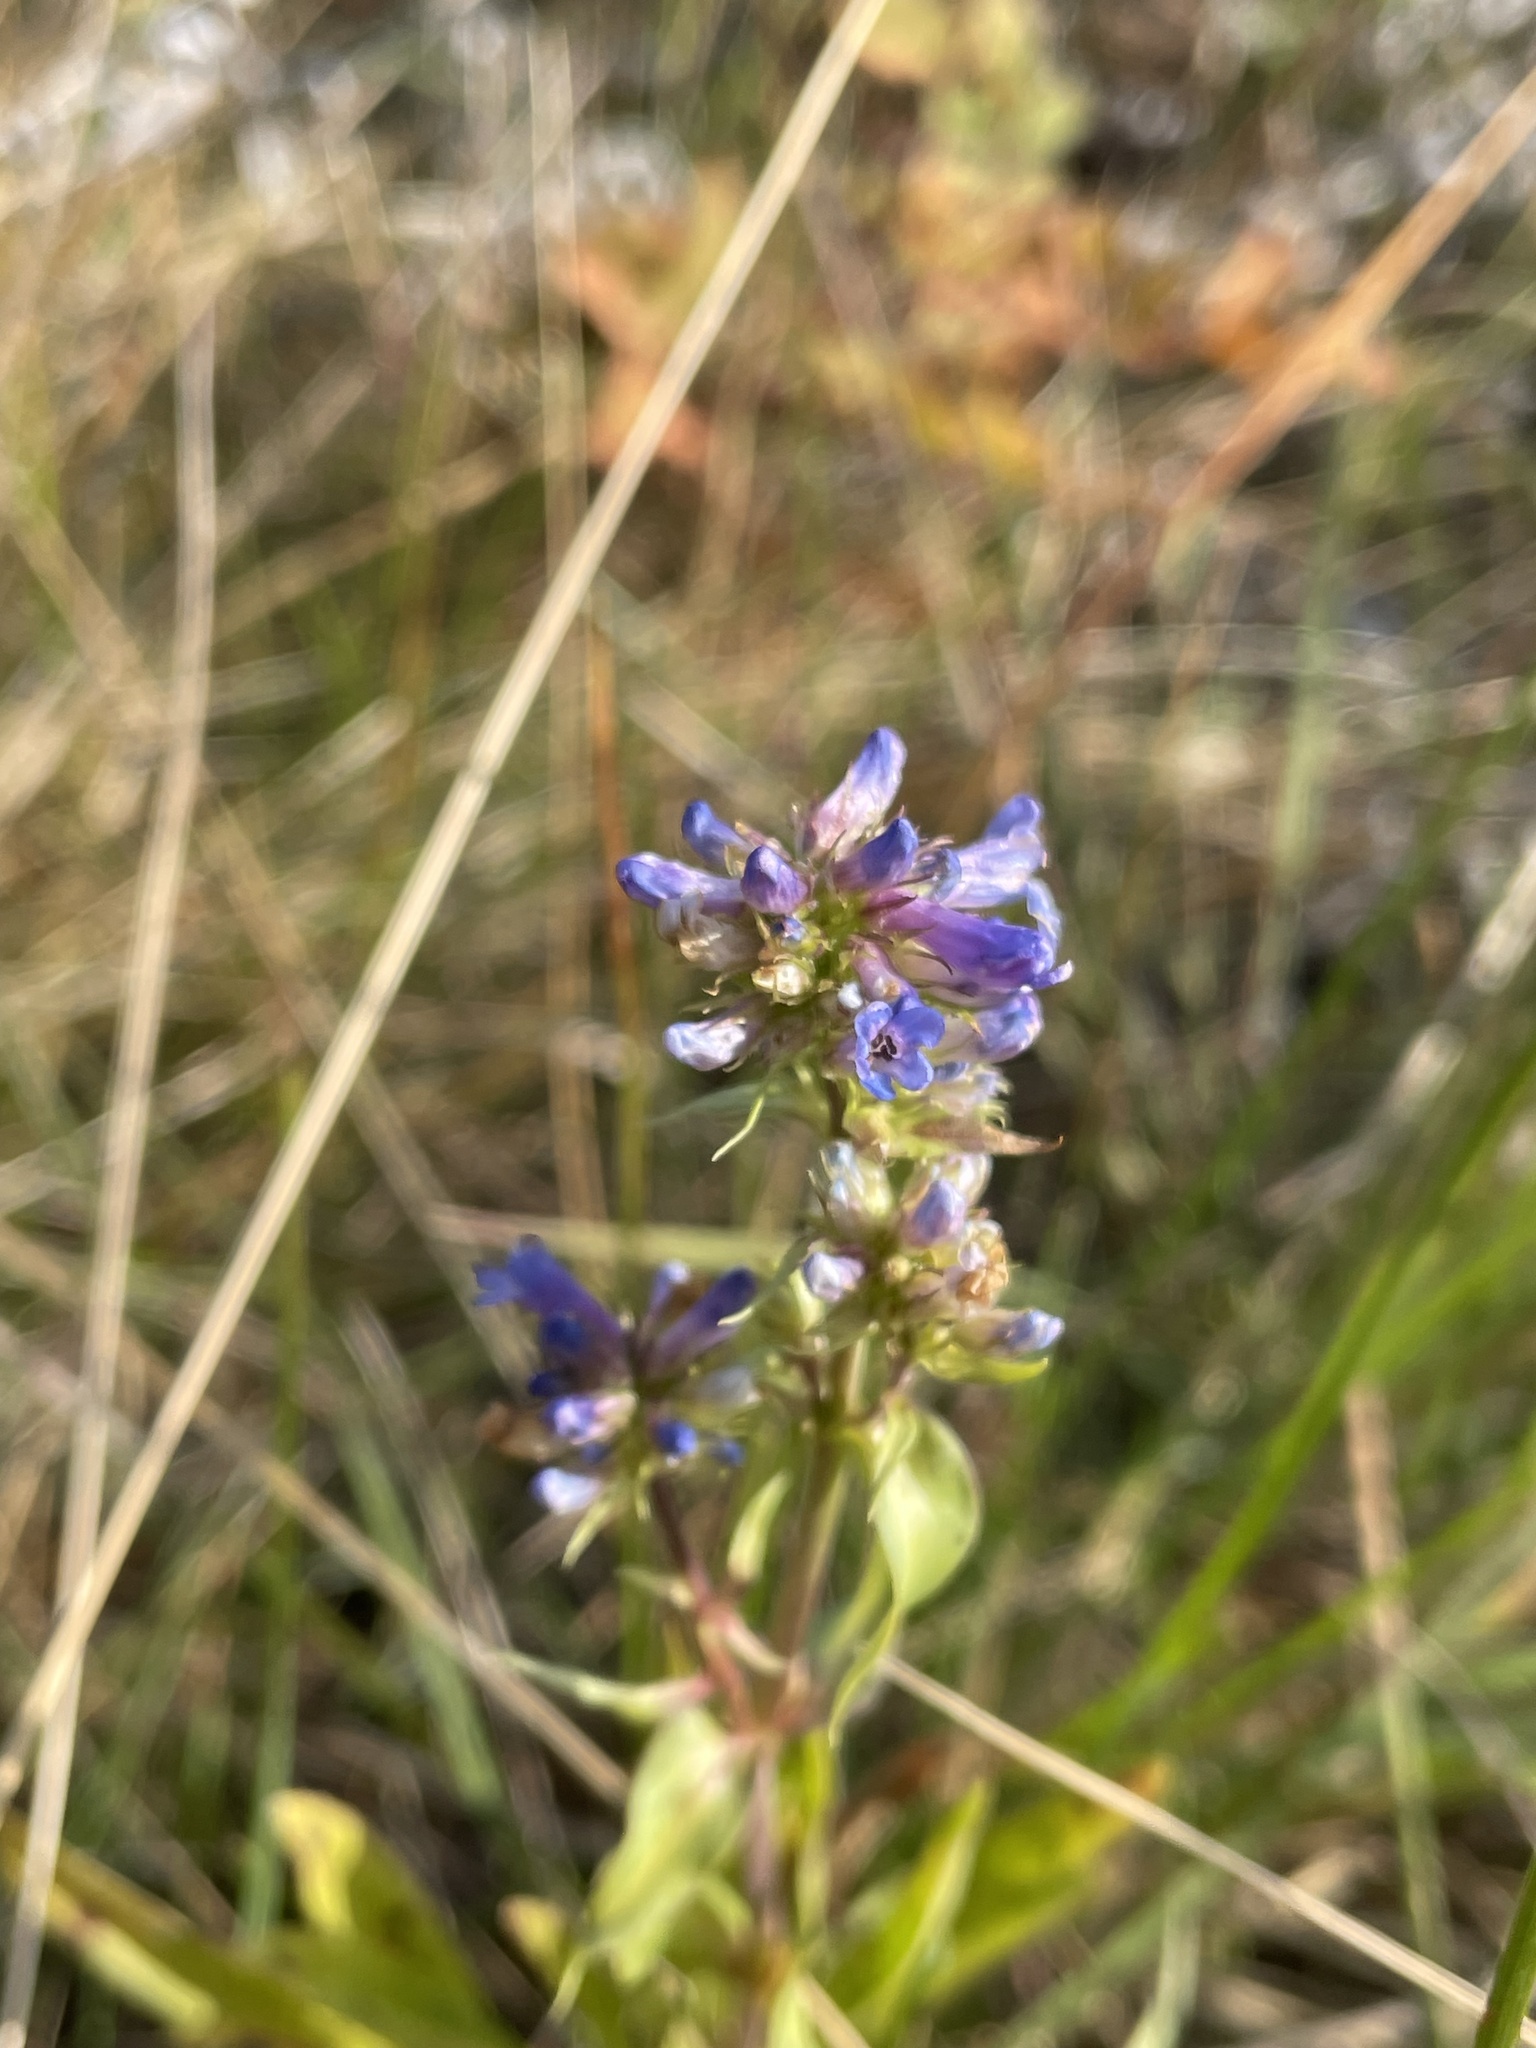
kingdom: Plantae
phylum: Tracheophyta
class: Magnoliopsida
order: Lamiales
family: Plantaginaceae
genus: Penstemon
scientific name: Penstemon procerus
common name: Small-flower penstemon
